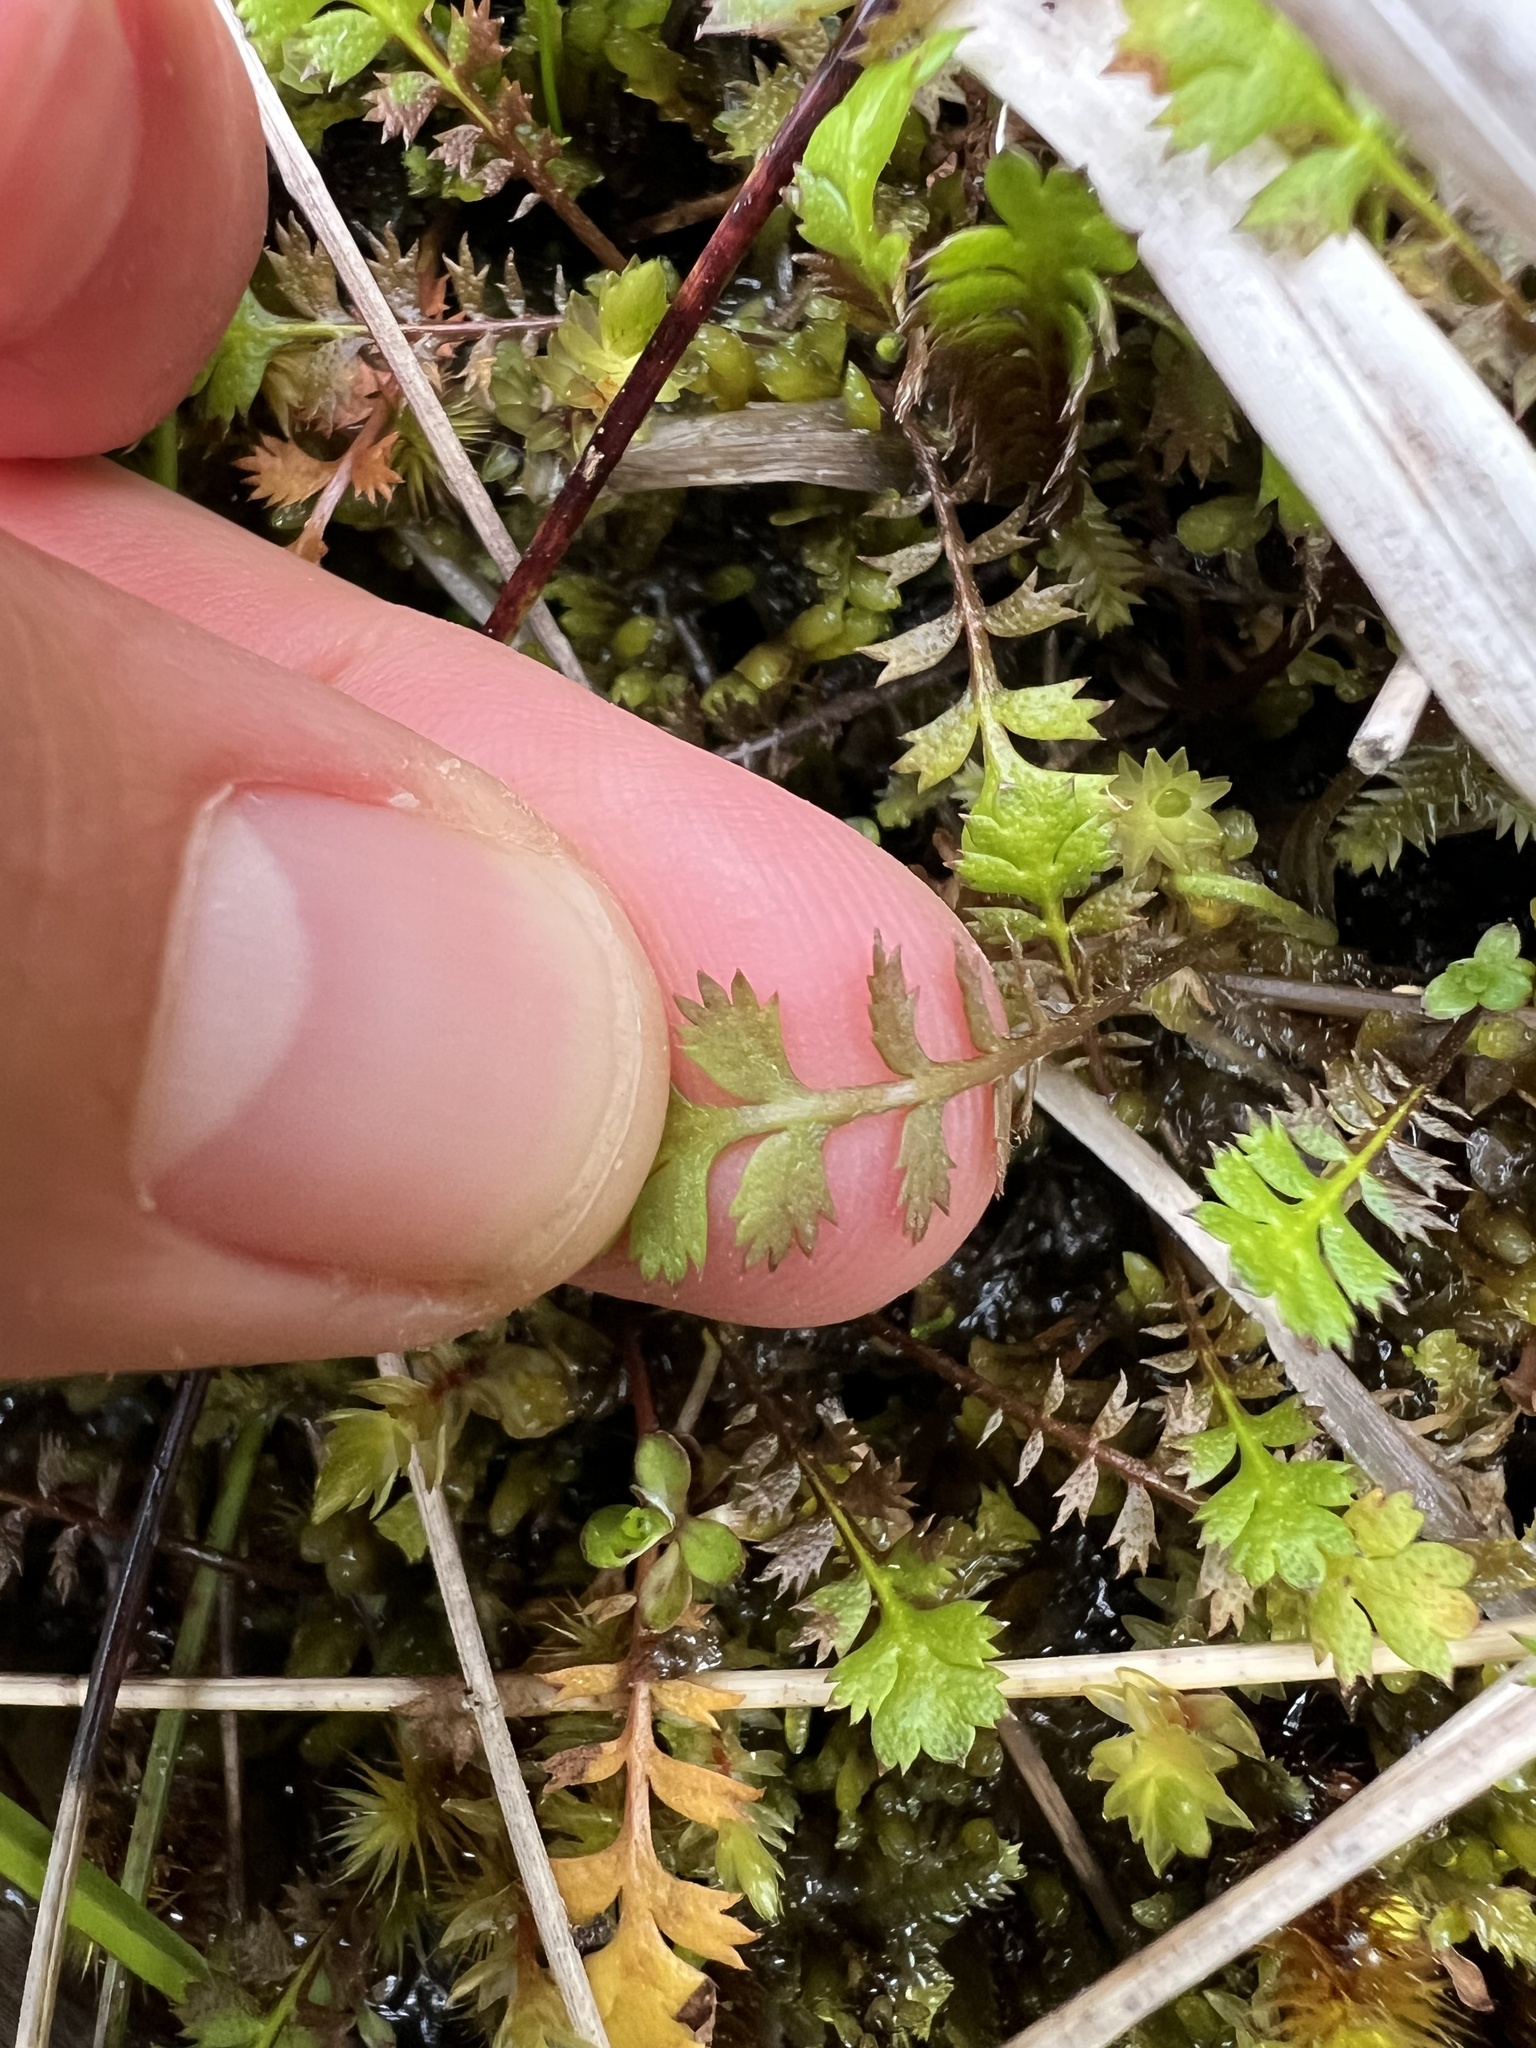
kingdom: Plantae
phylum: Tracheophyta
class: Magnoliopsida
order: Asterales
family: Asteraceae
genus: Leptinella
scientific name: Leptinella squalida
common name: New zealand brass-buttons
